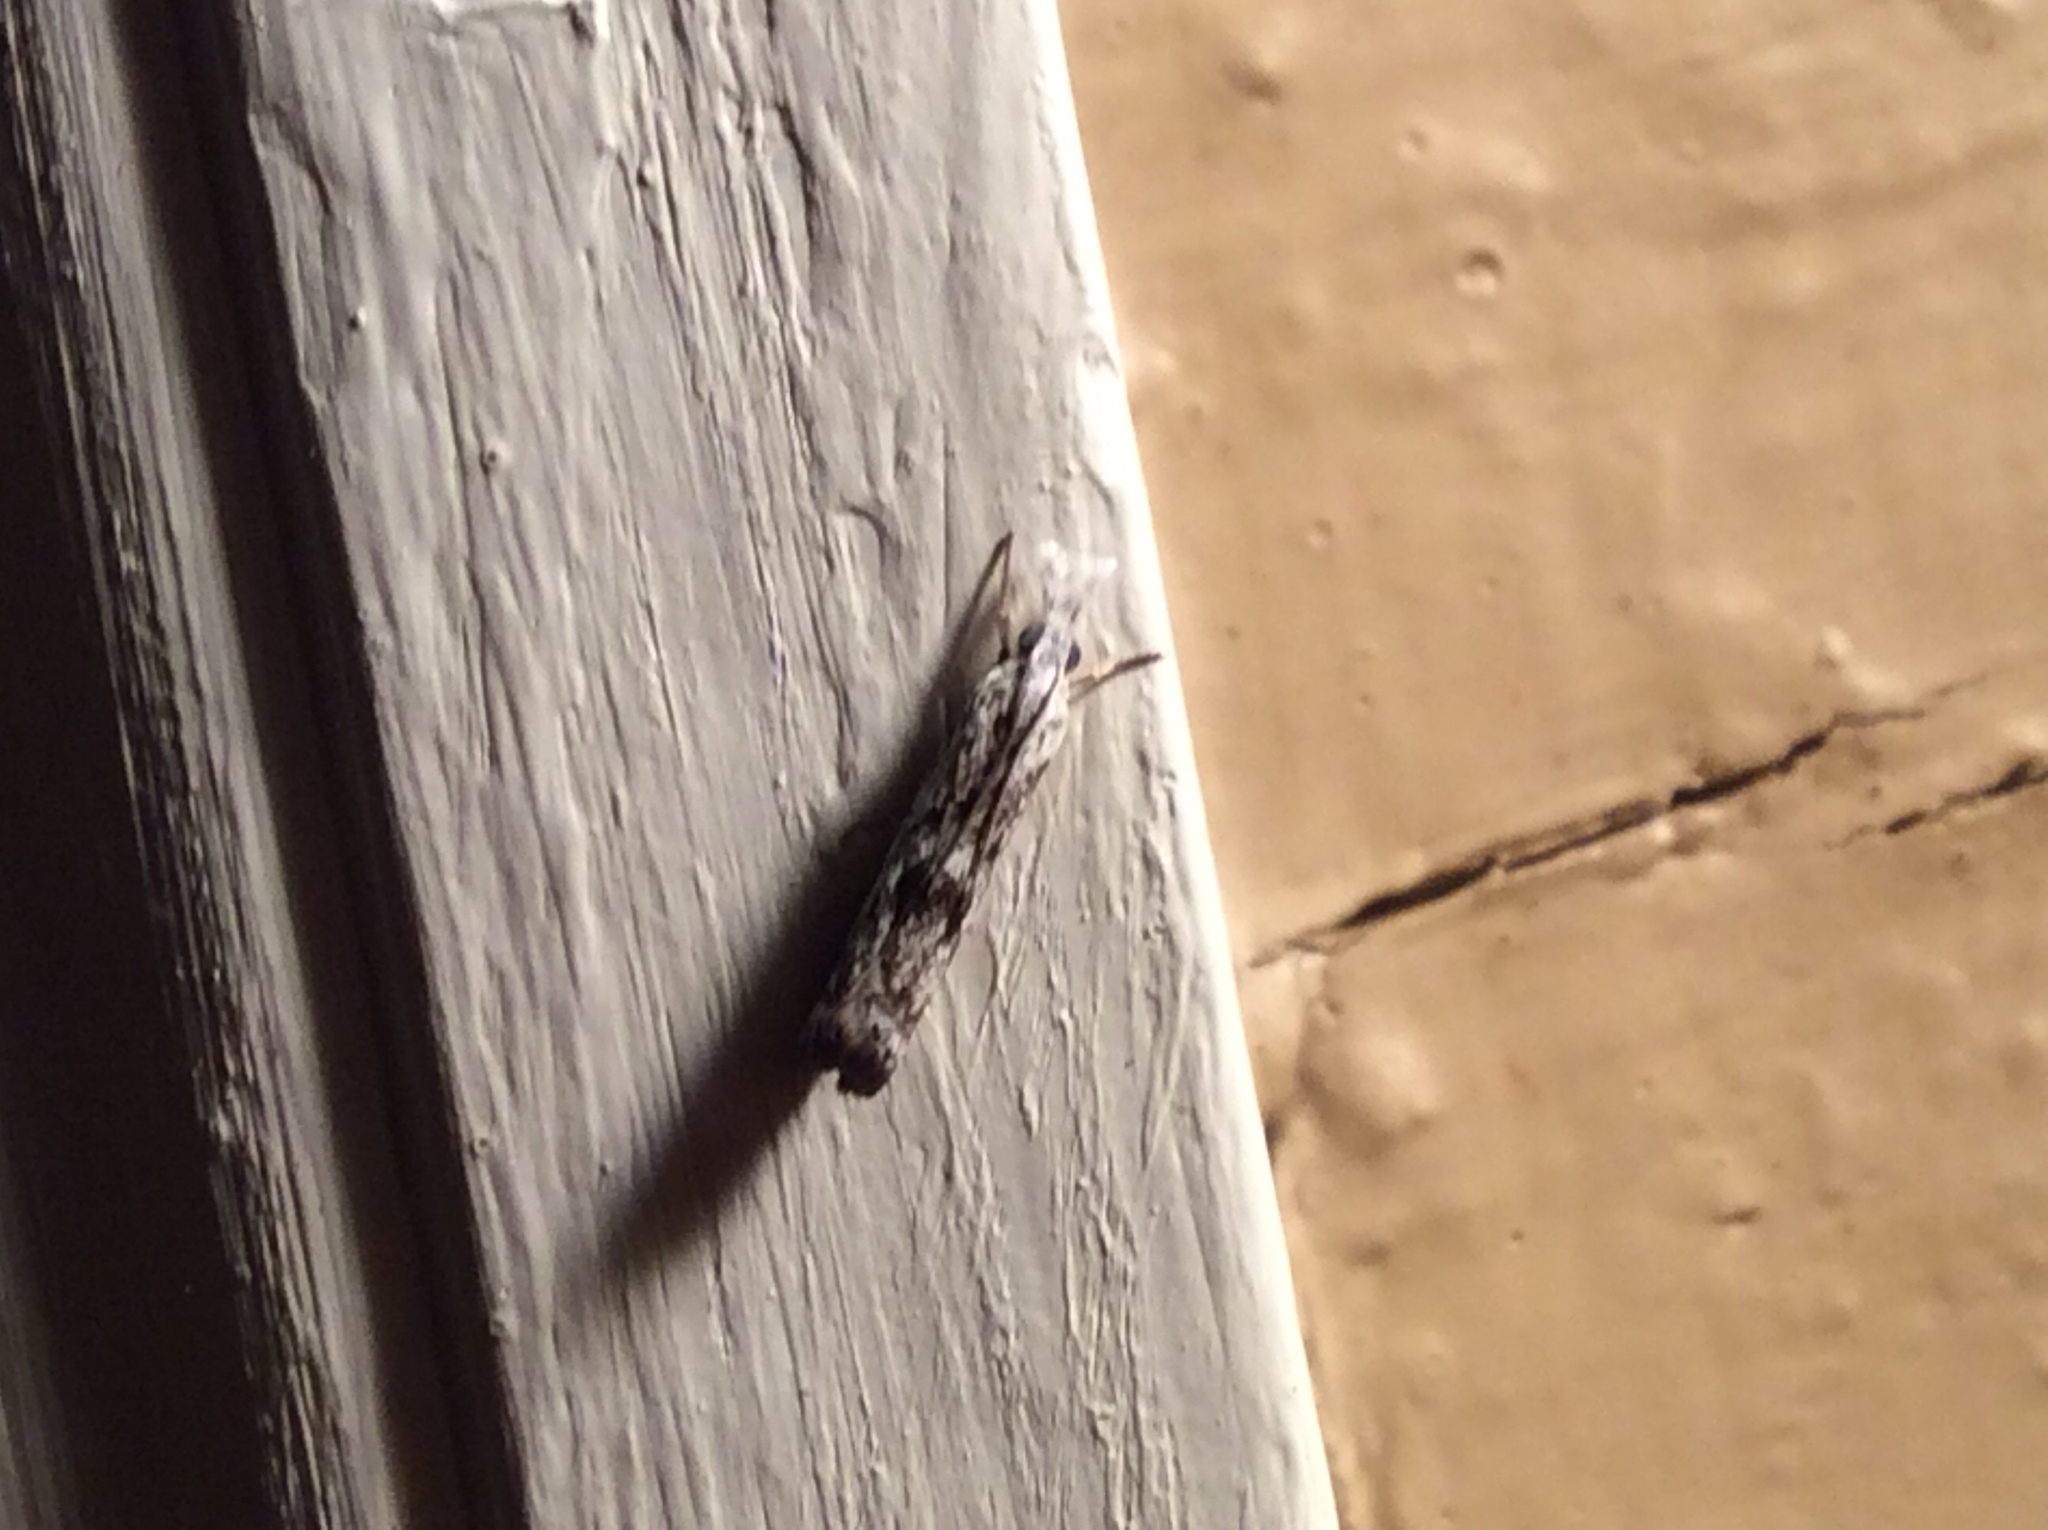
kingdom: Animalia
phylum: Arthropoda
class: Insecta
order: Lepidoptera
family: Crambidae
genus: Microcrambus
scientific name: Microcrambus elegans
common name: Elegant grass-veneer
